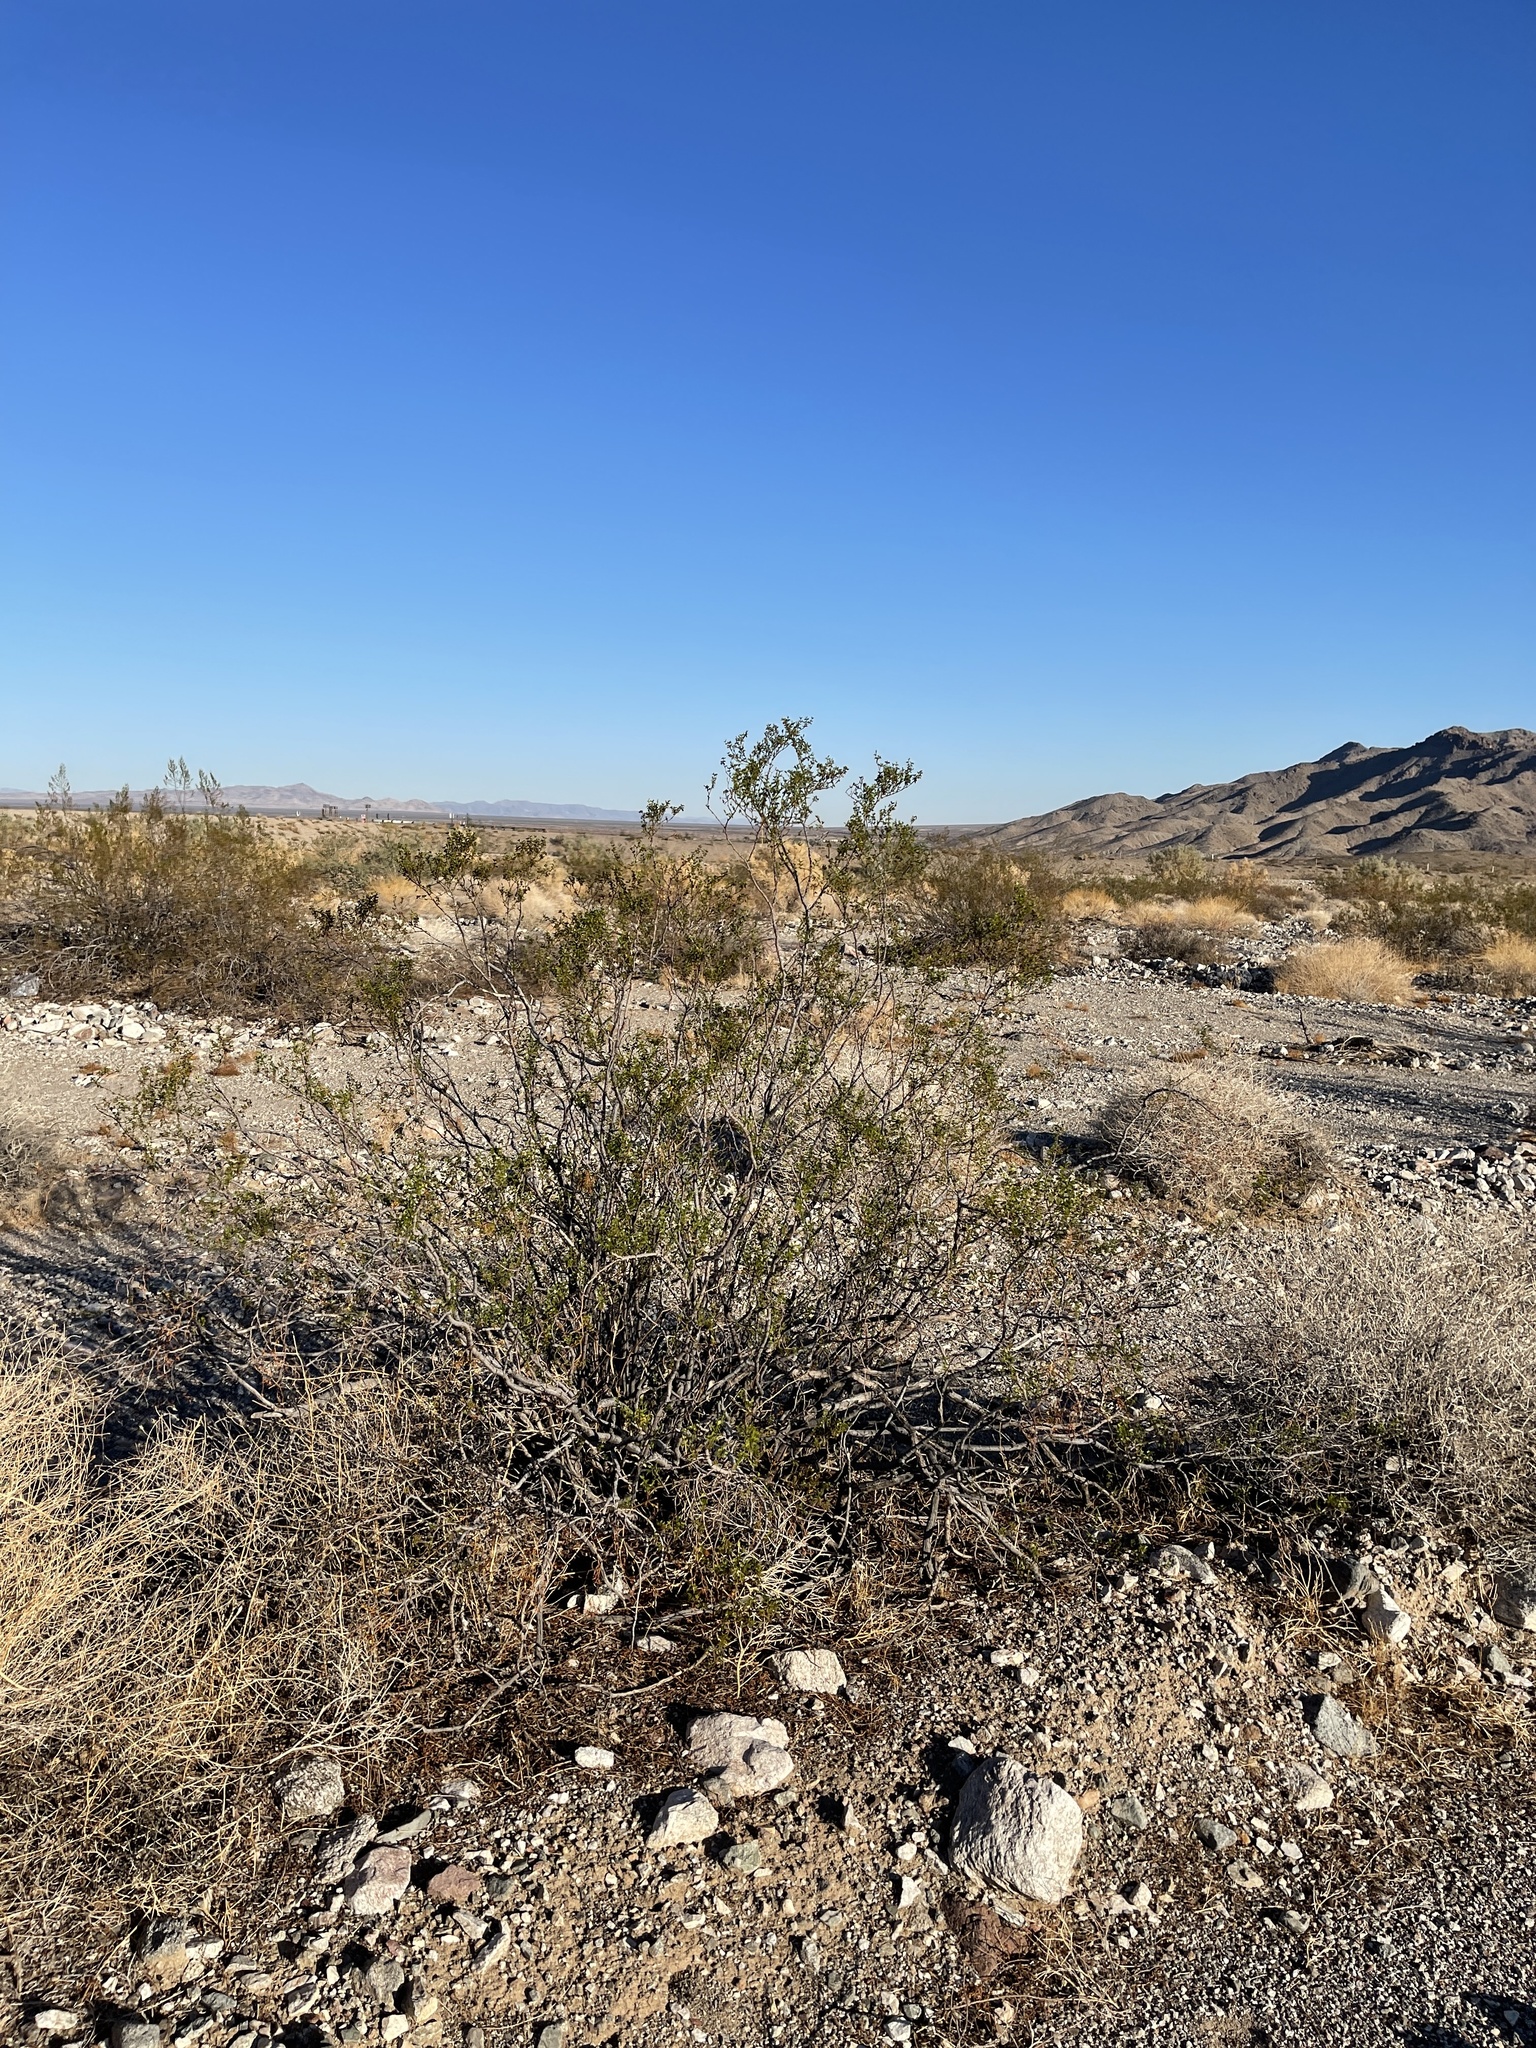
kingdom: Plantae
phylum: Tracheophyta
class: Magnoliopsida
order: Zygophyllales
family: Zygophyllaceae
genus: Larrea
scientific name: Larrea tridentata
